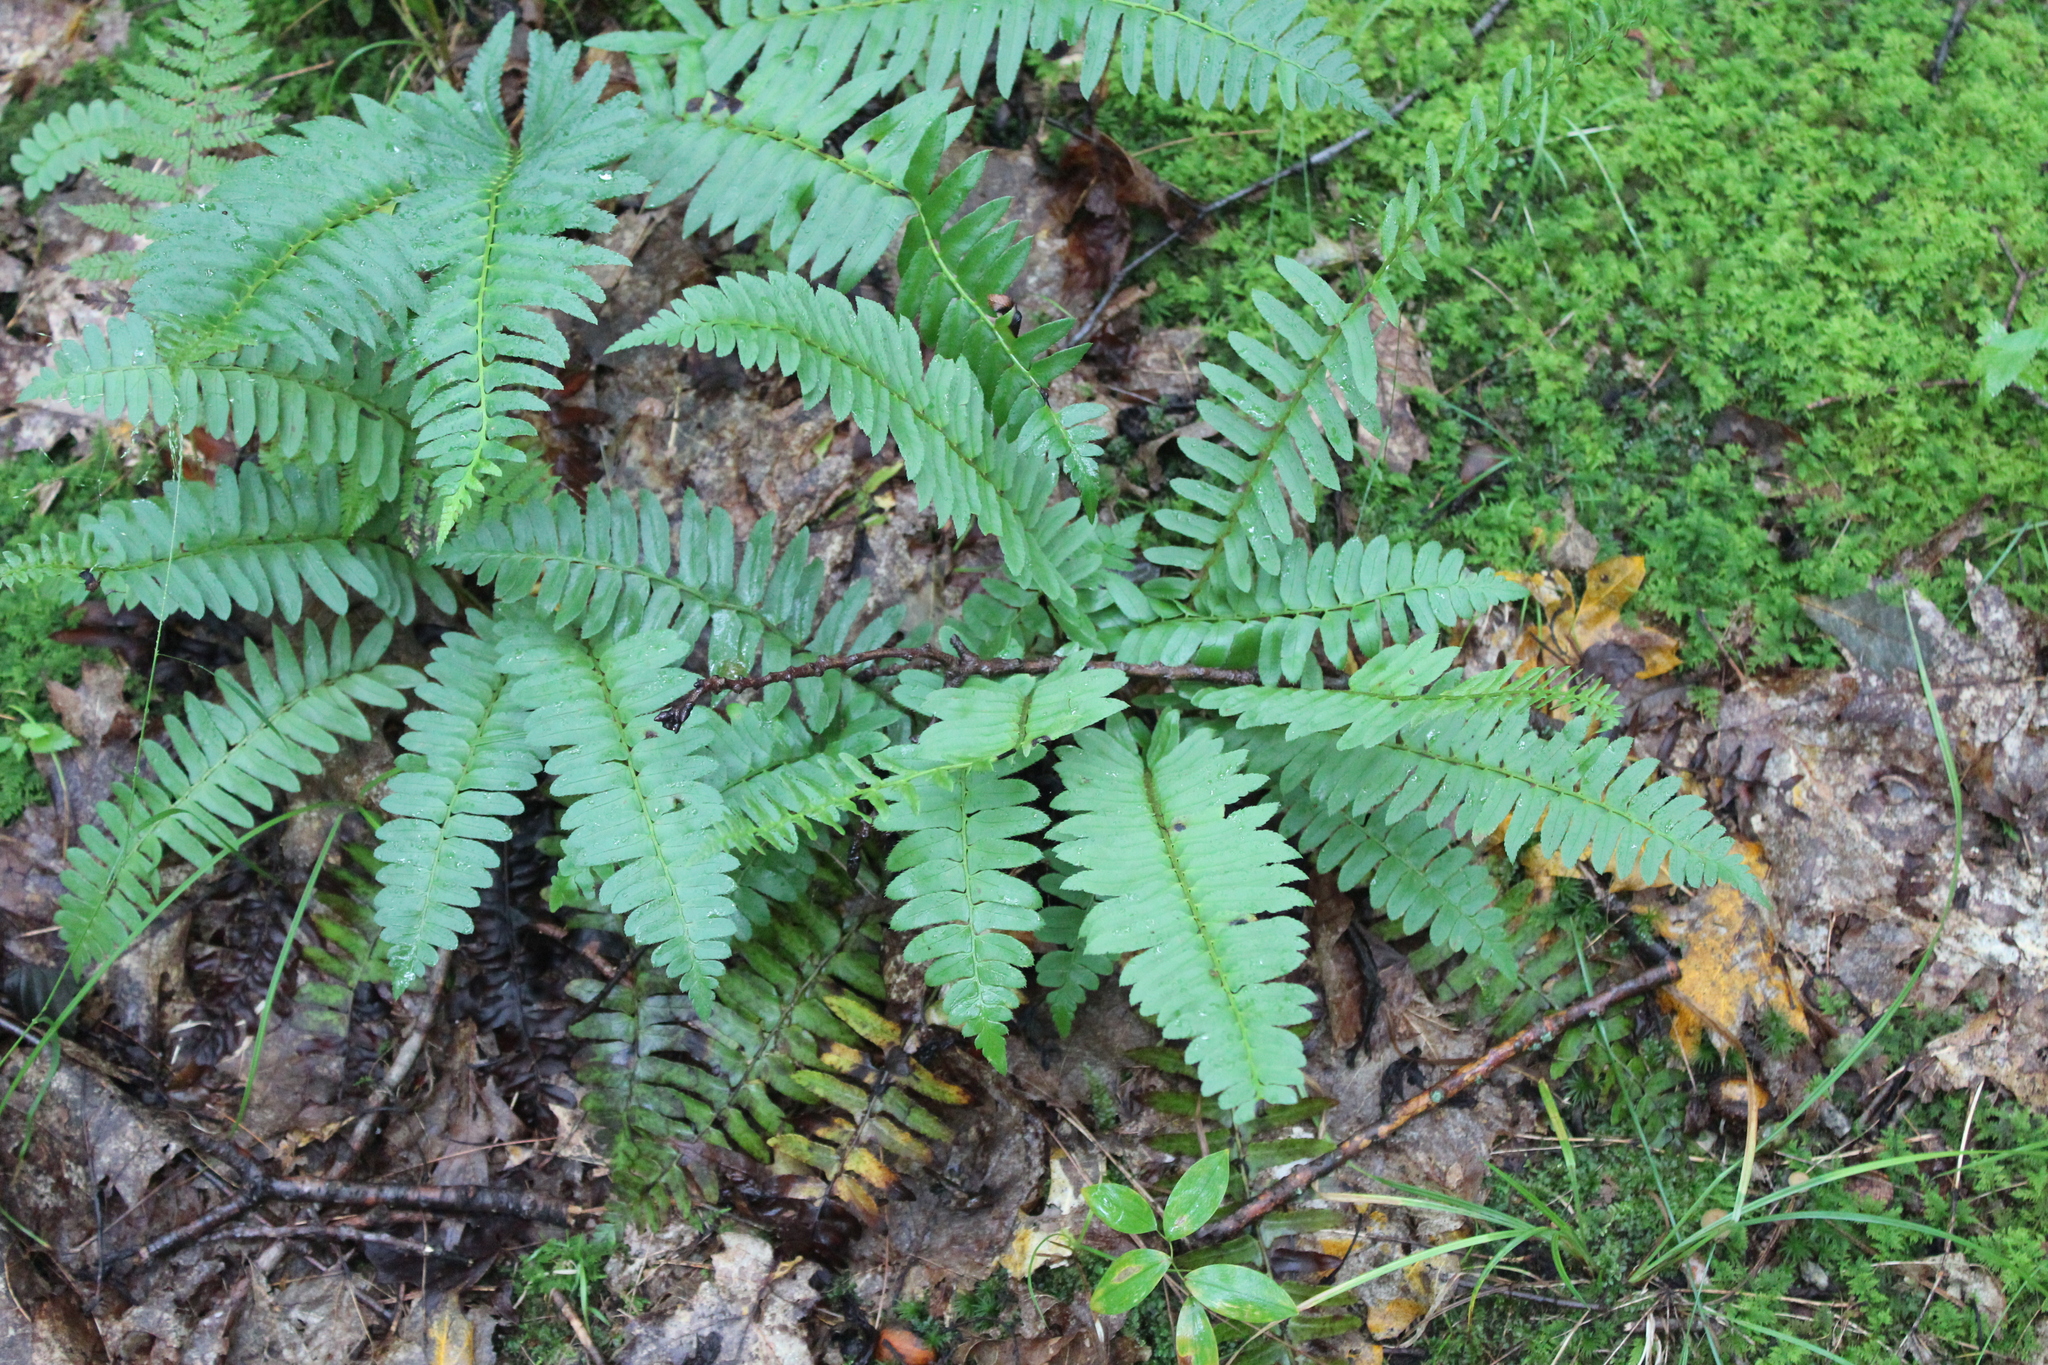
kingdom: Plantae
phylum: Tracheophyta
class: Polypodiopsida
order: Polypodiales
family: Dryopteridaceae
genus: Polystichum
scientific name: Polystichum acrostichoides
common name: Christmas fern
